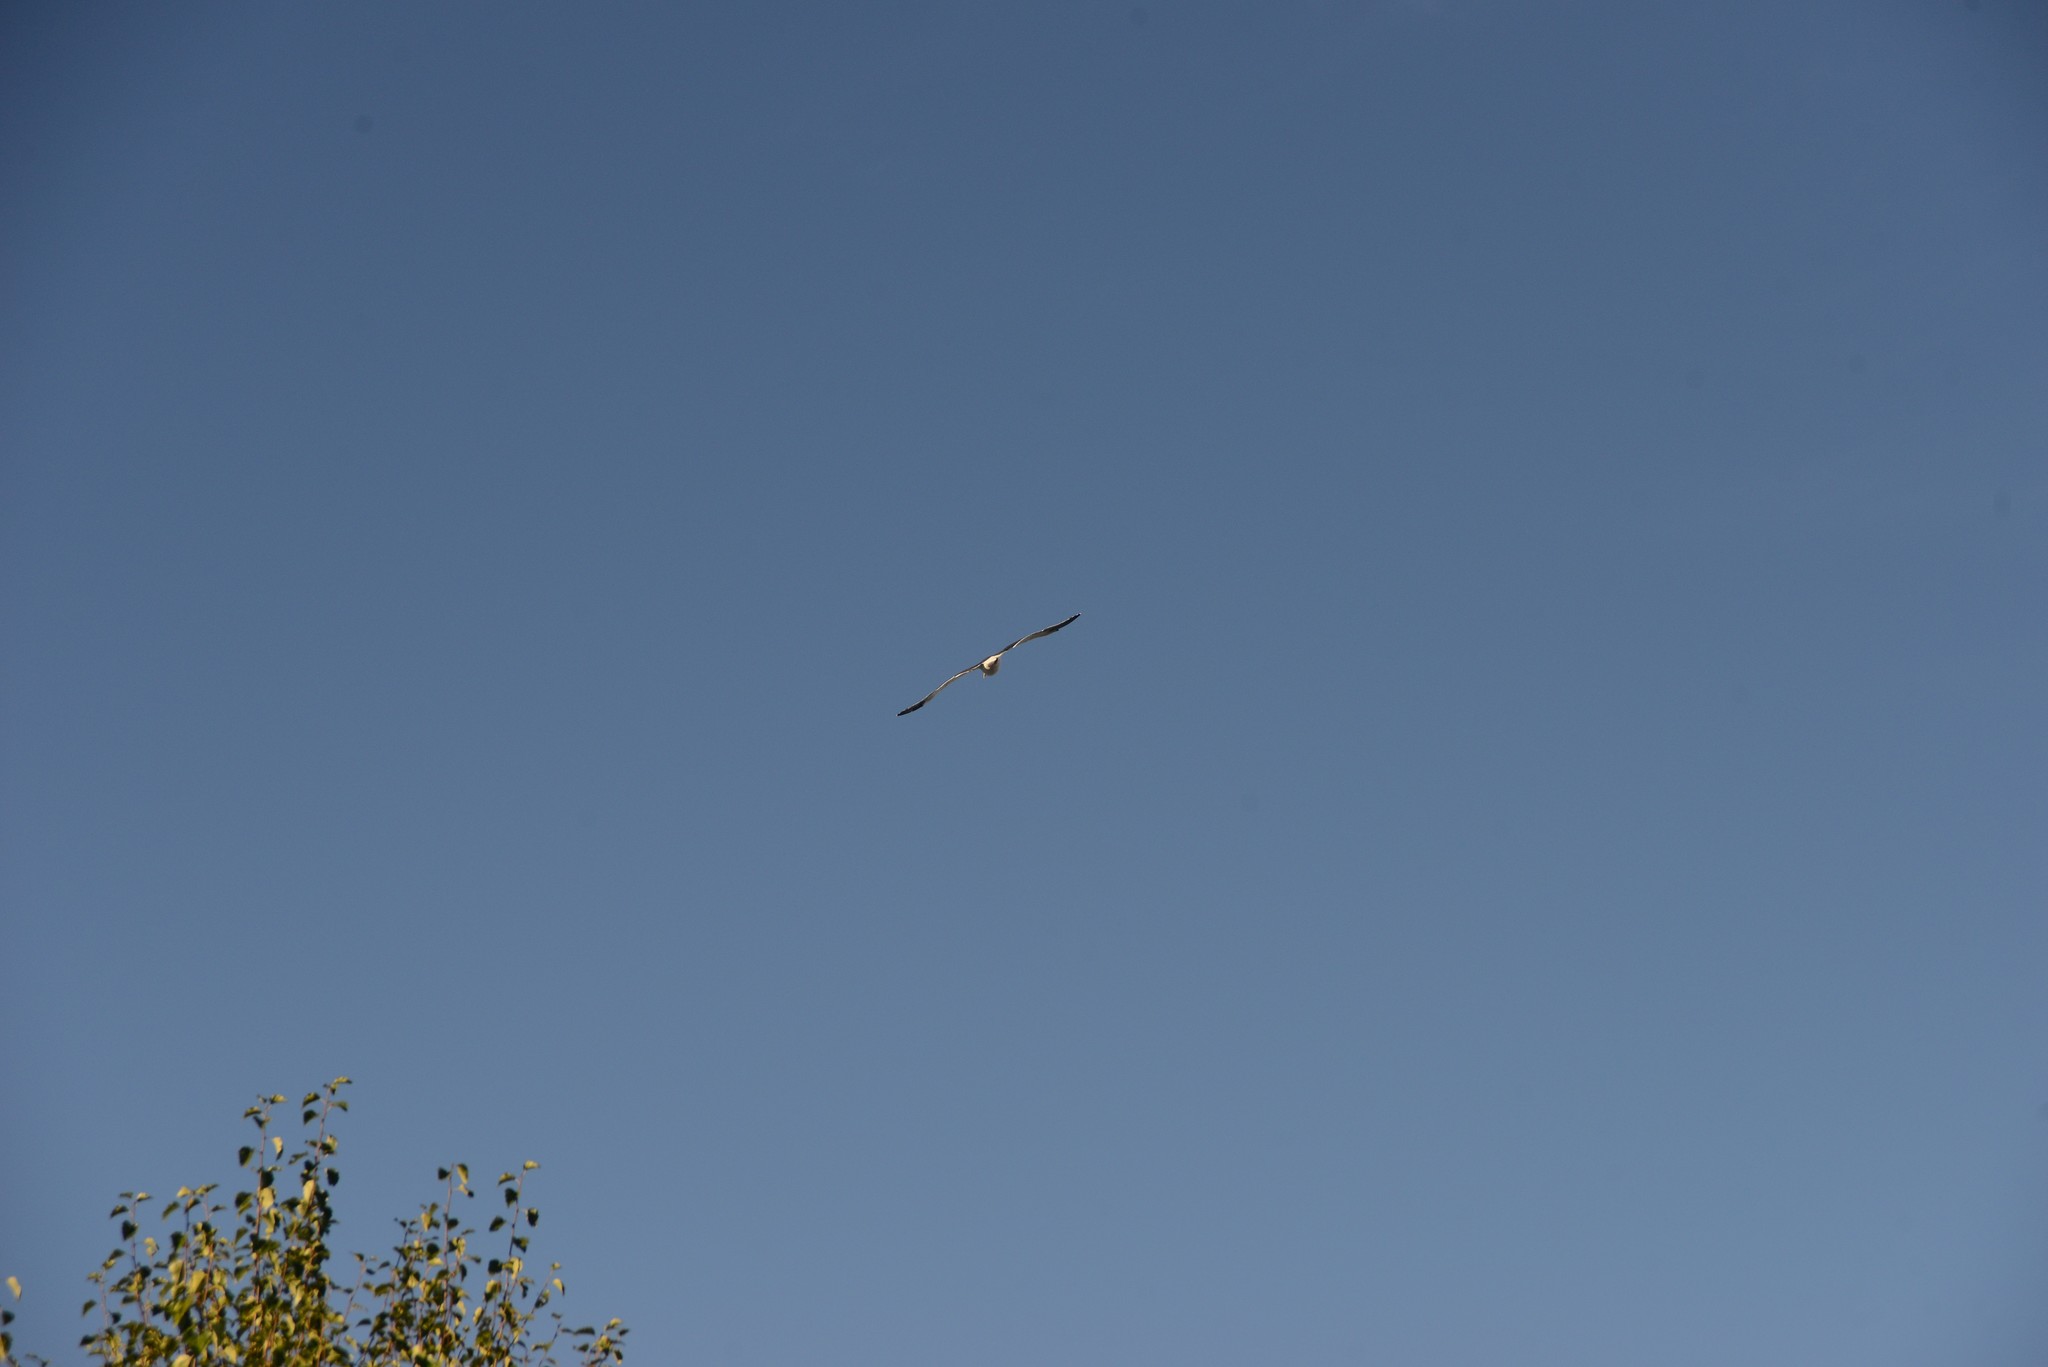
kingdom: Animalia
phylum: Chordata
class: Aves
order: Charadriiformes
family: Laridae
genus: Larus
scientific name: Larus dominicanus
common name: Kelp gull
